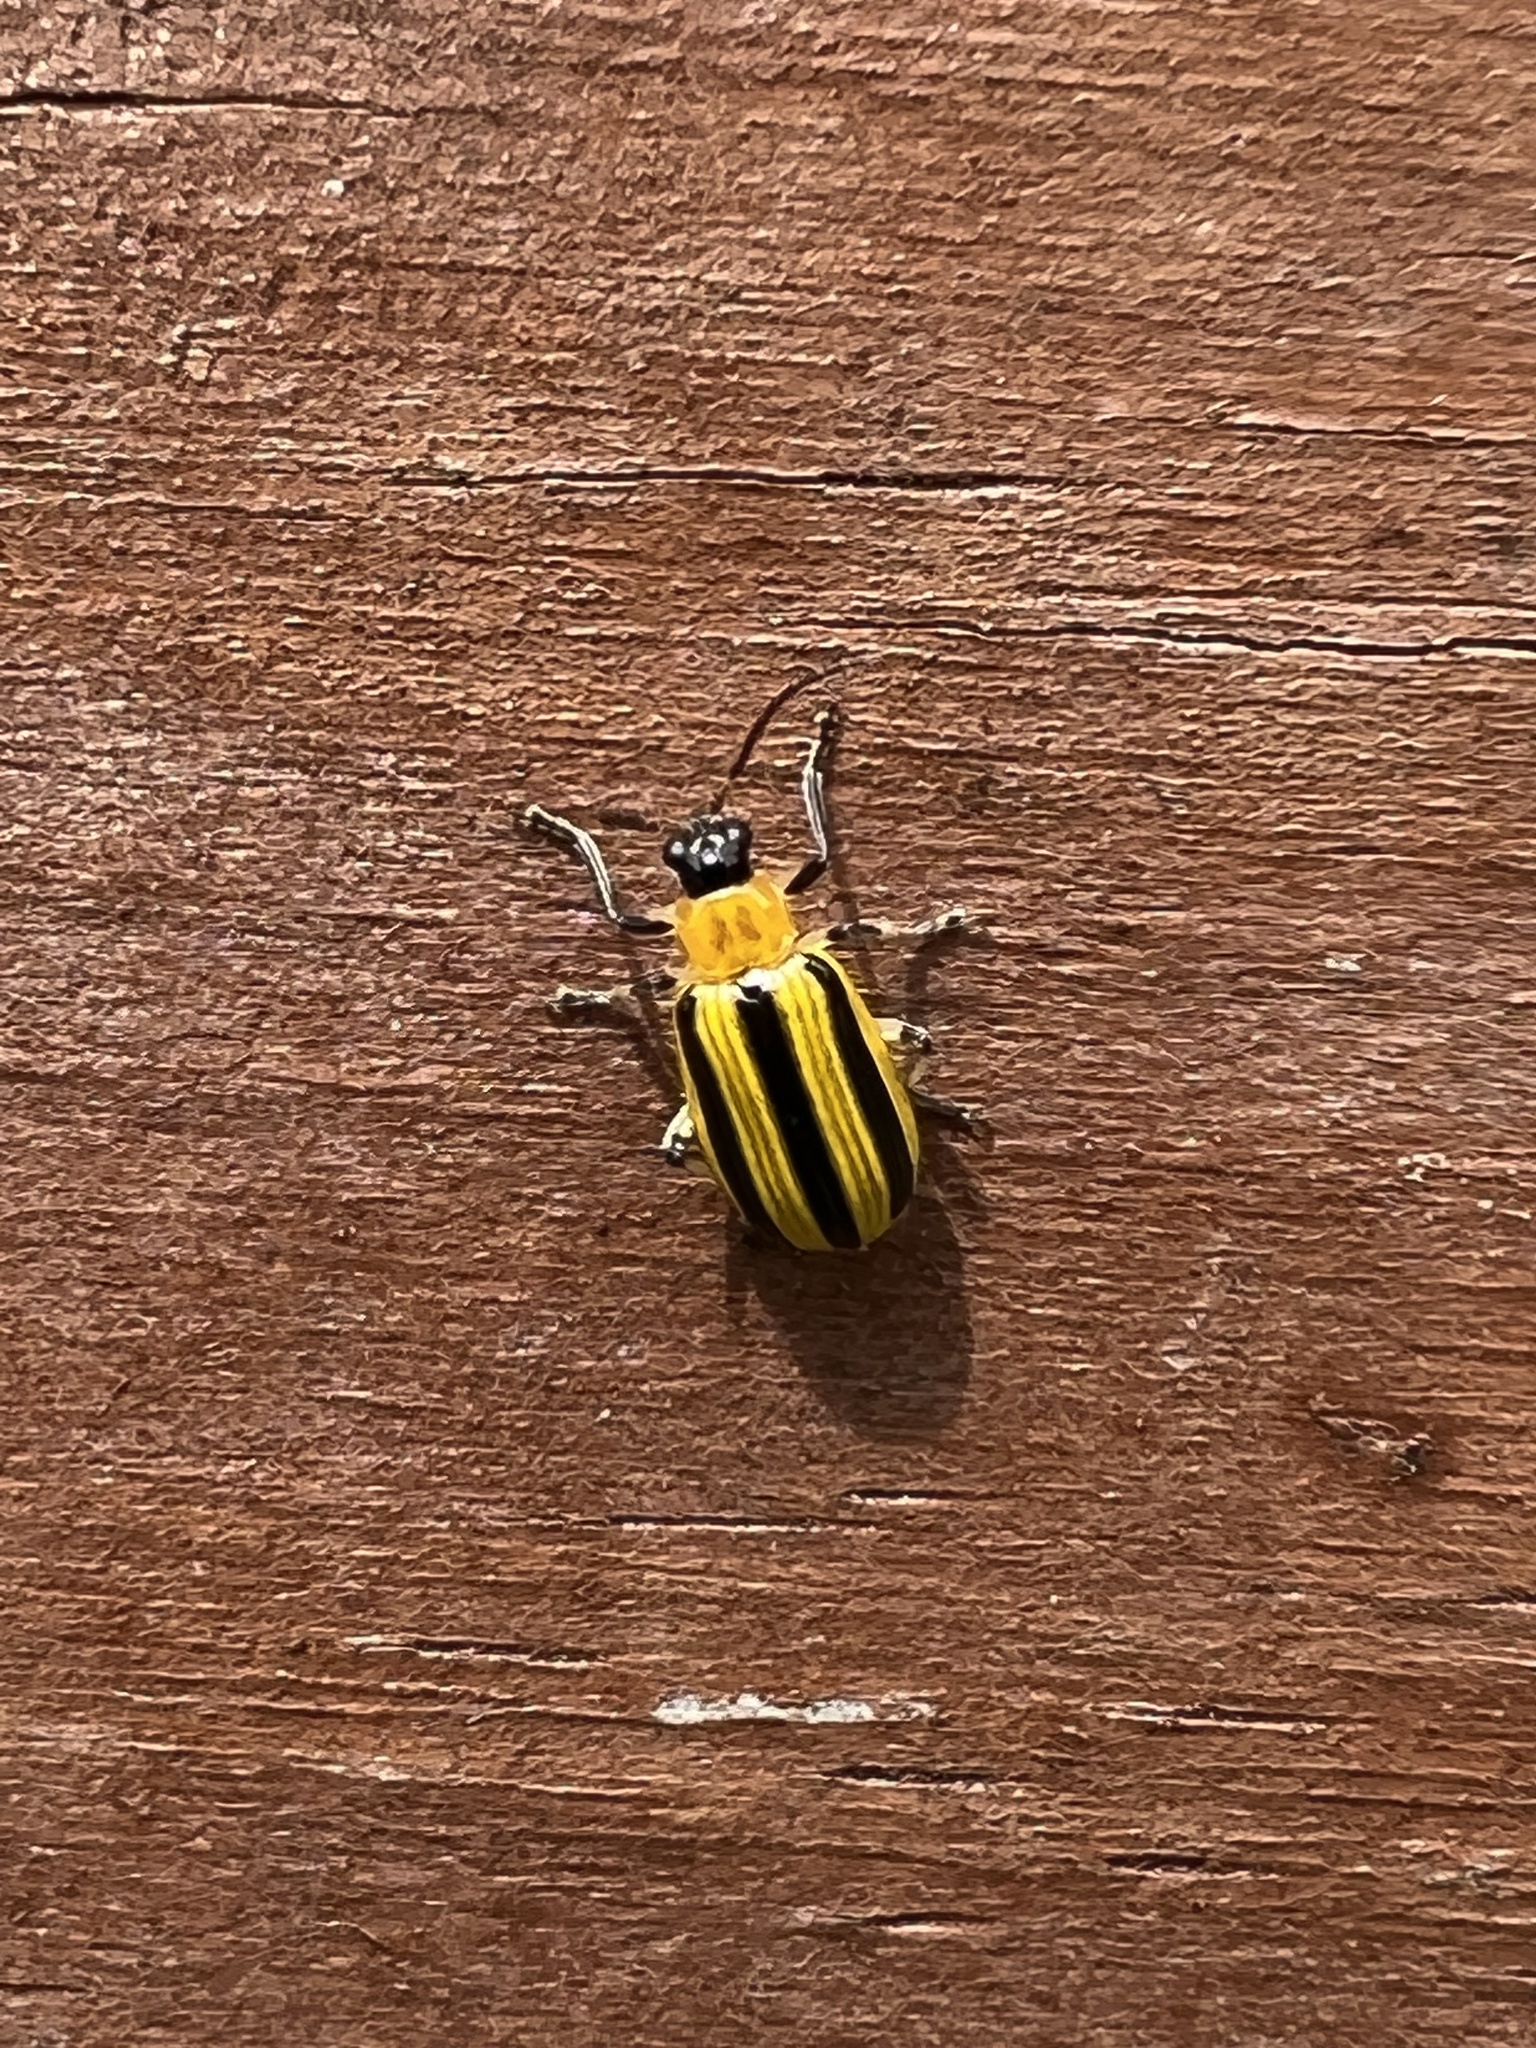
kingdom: Animalia
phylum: Arthropoda
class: Insecta
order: Coleoptera
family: Chrysomelidae
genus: Acalymma
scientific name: Acalymma vittatum
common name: Striped cucumber beetle
